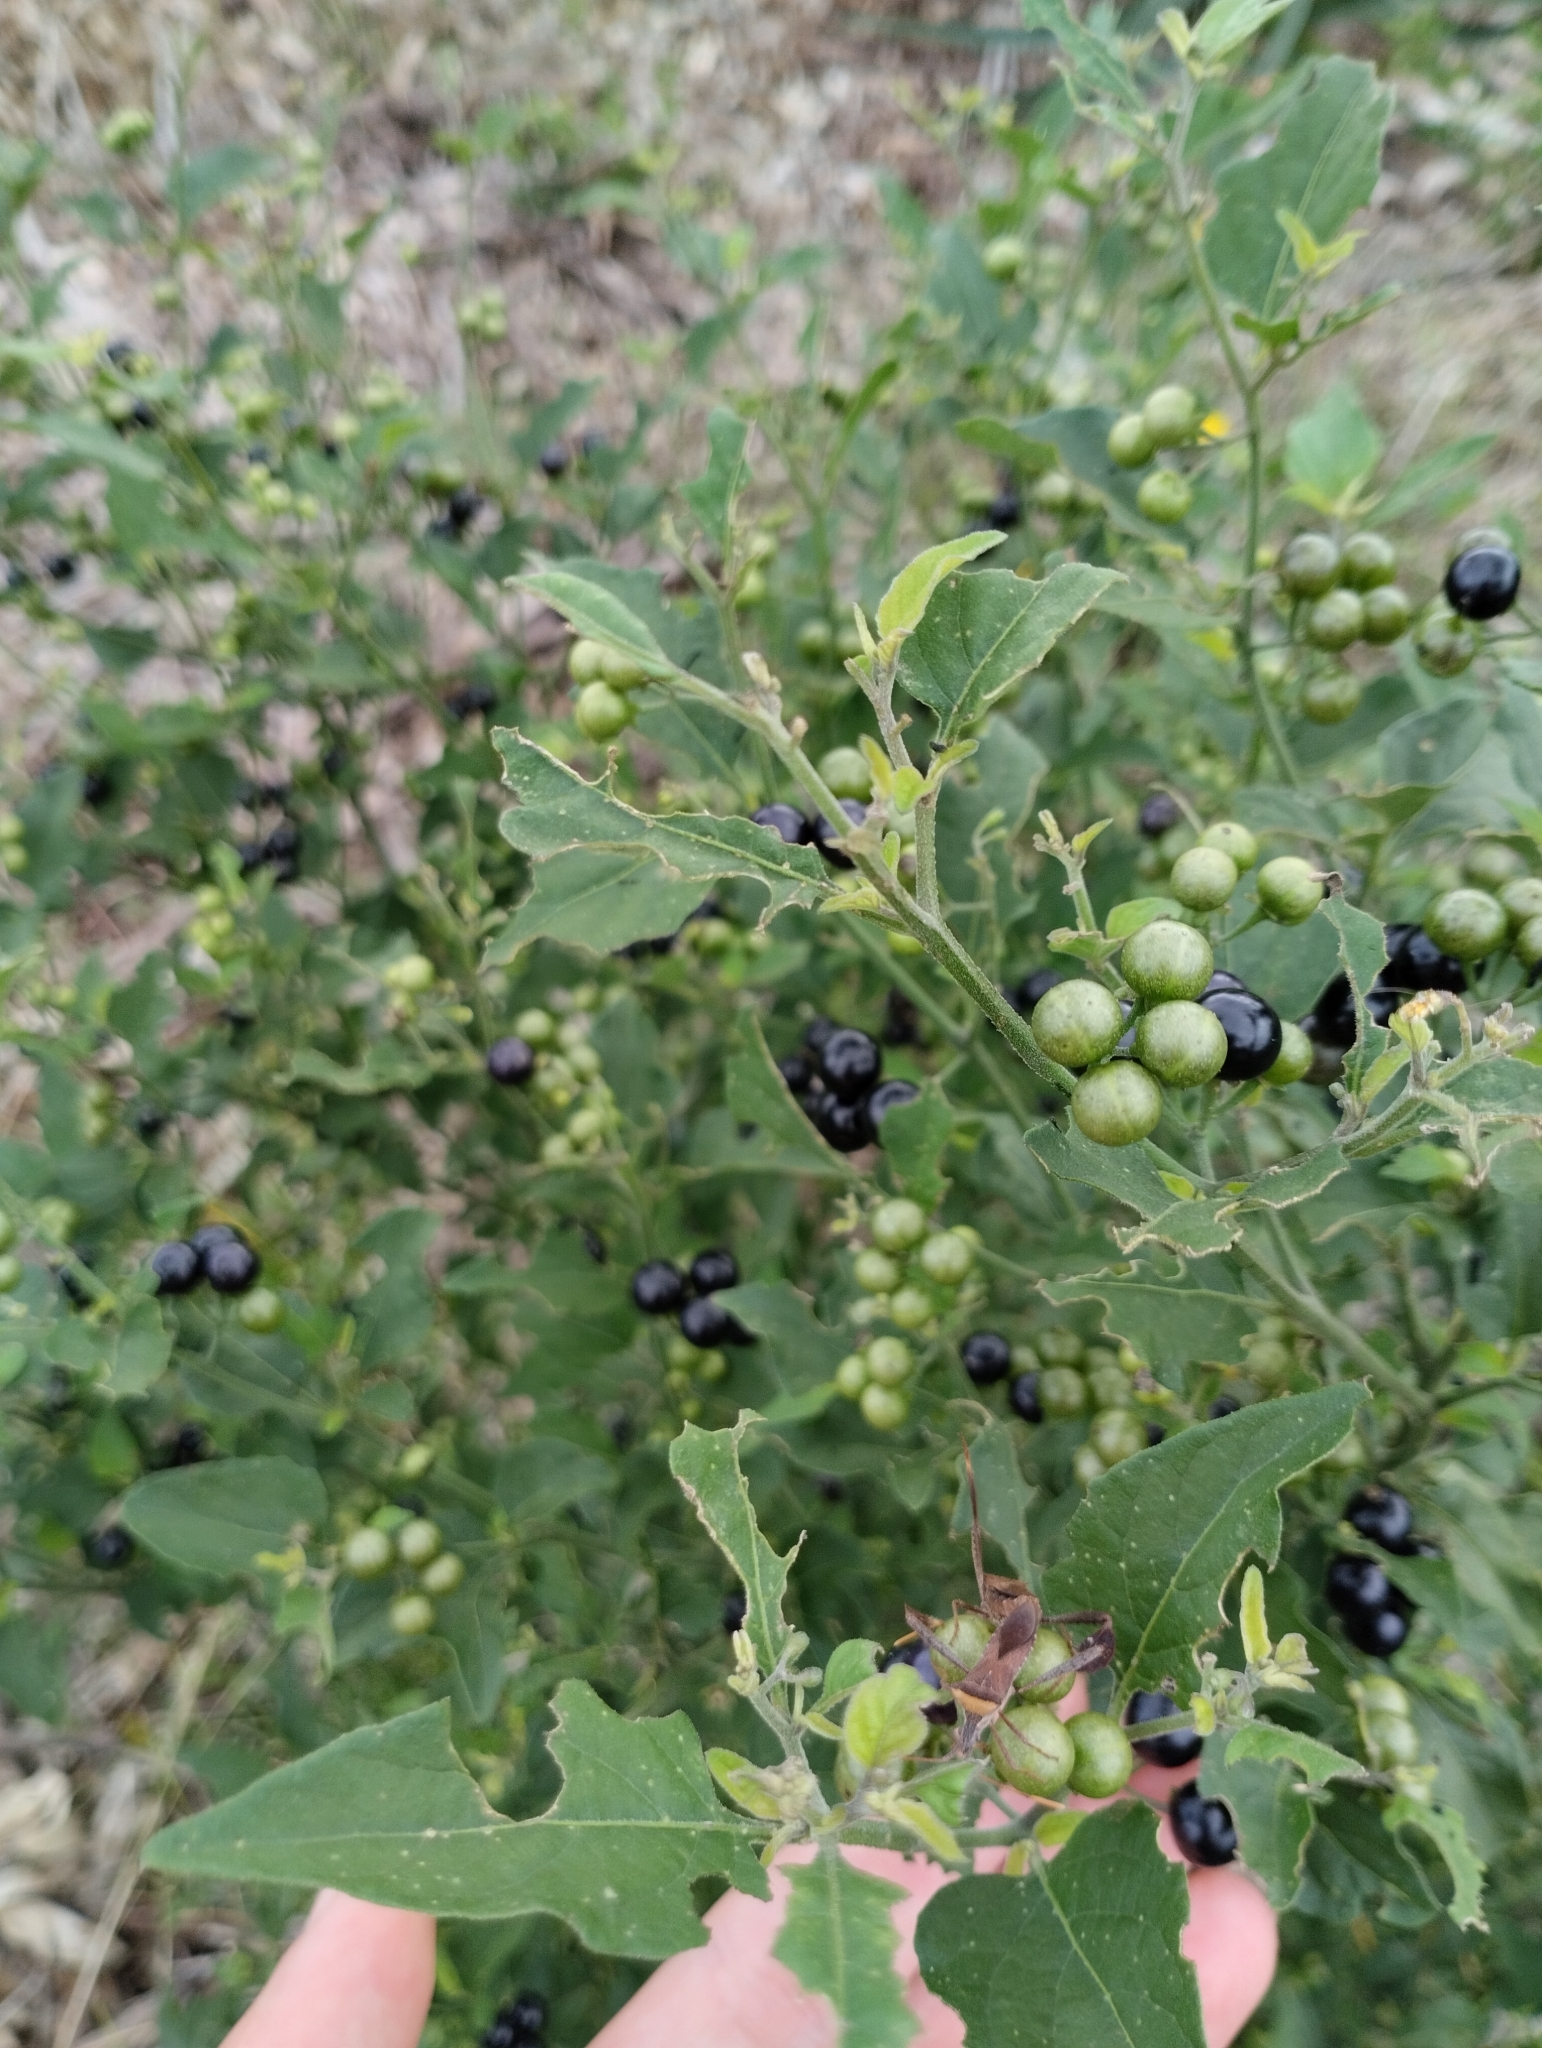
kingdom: Plantae
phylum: Tracheophyta
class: Magnoliopsida
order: Solanales
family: Solanaceae
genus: Solanum
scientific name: Solanum americanum
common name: American black nightshade
